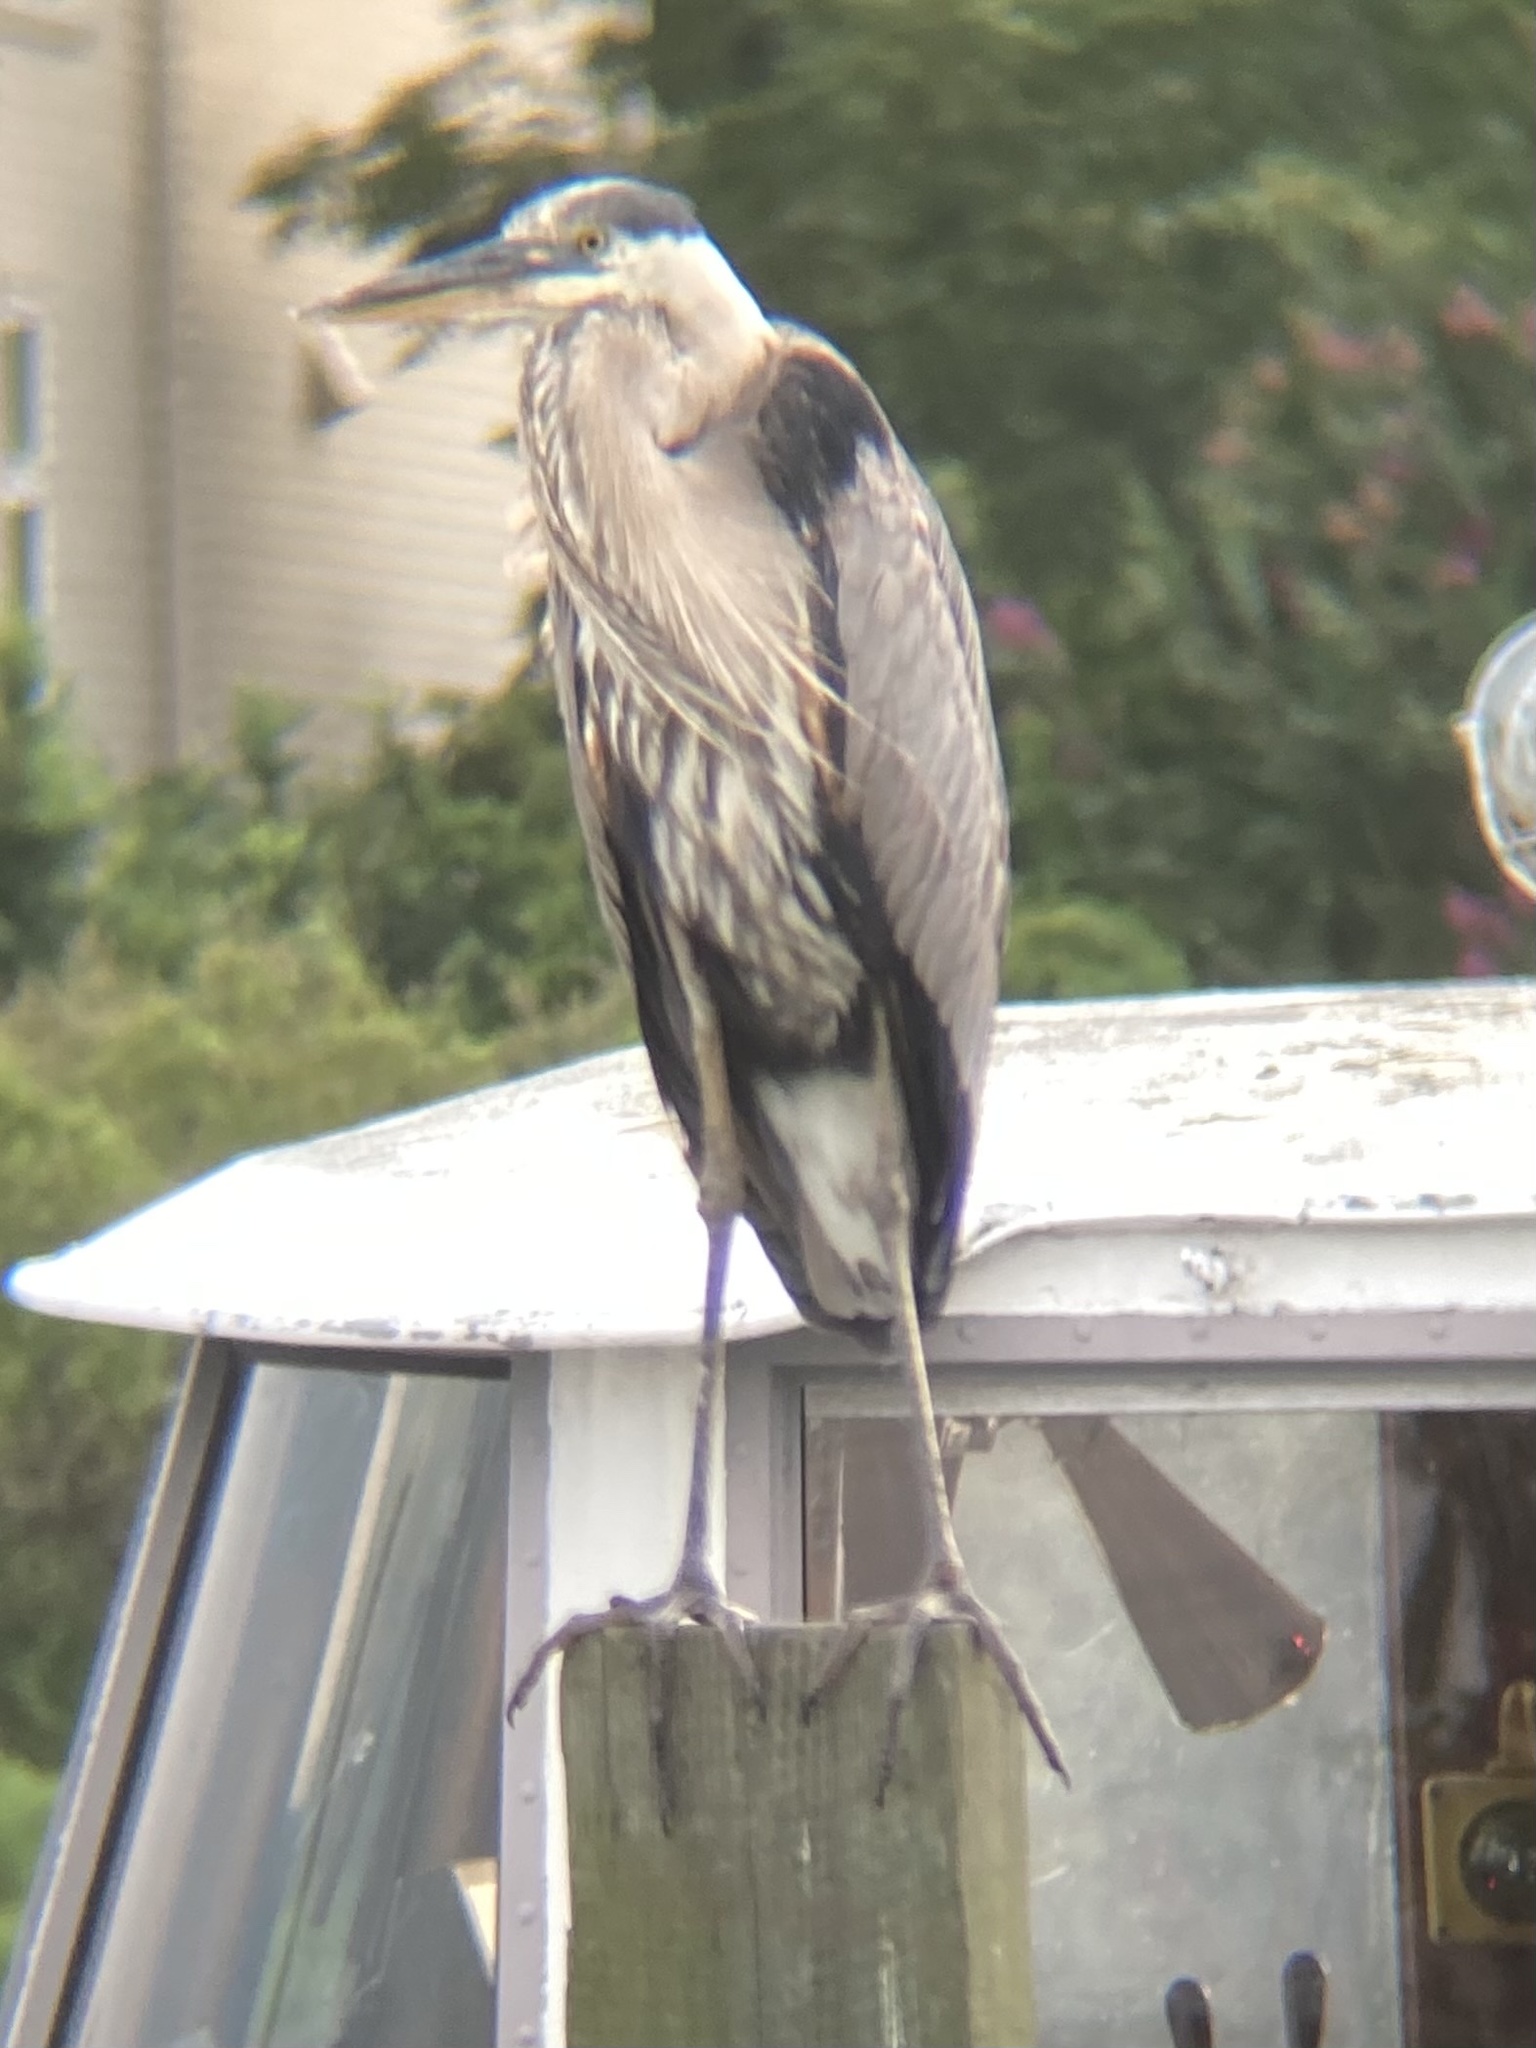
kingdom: Animalia
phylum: Chordata
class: Aves
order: Pelecaniformes
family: Ardeidae
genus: Ardea
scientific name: Ardea herodias
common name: Great blue heron
